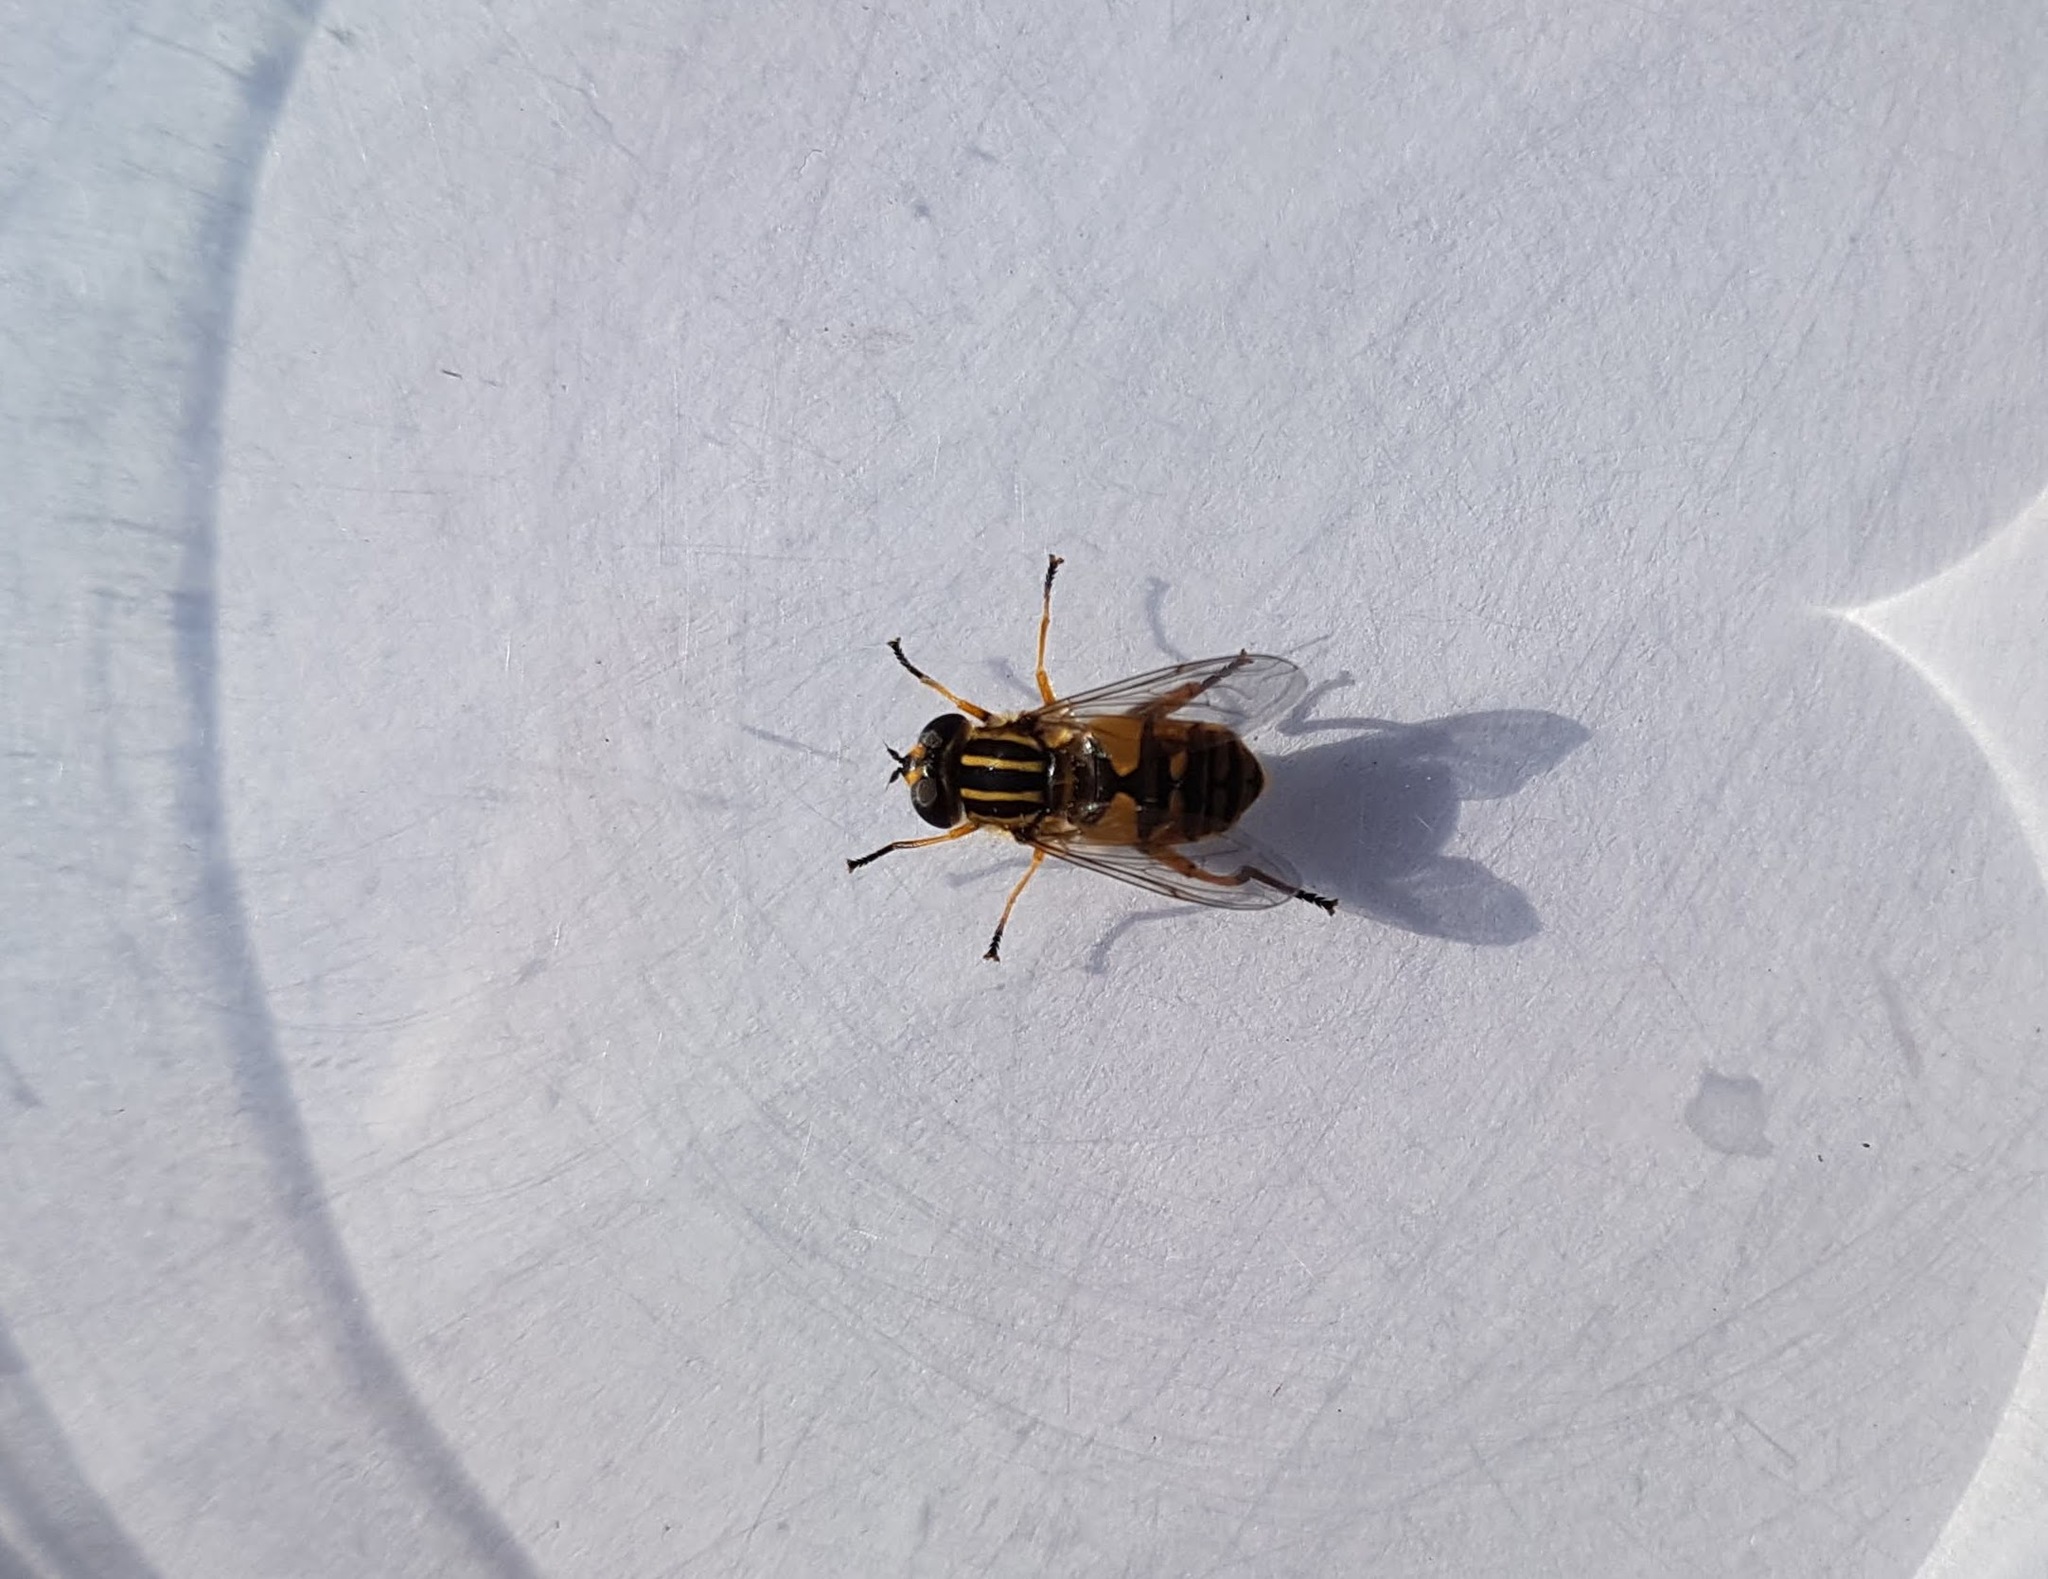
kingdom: Animalia
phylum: Arthropoda
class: Insecta
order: Diptera
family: Syrphidae
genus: Helophilus
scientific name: Helophilus pendulus
